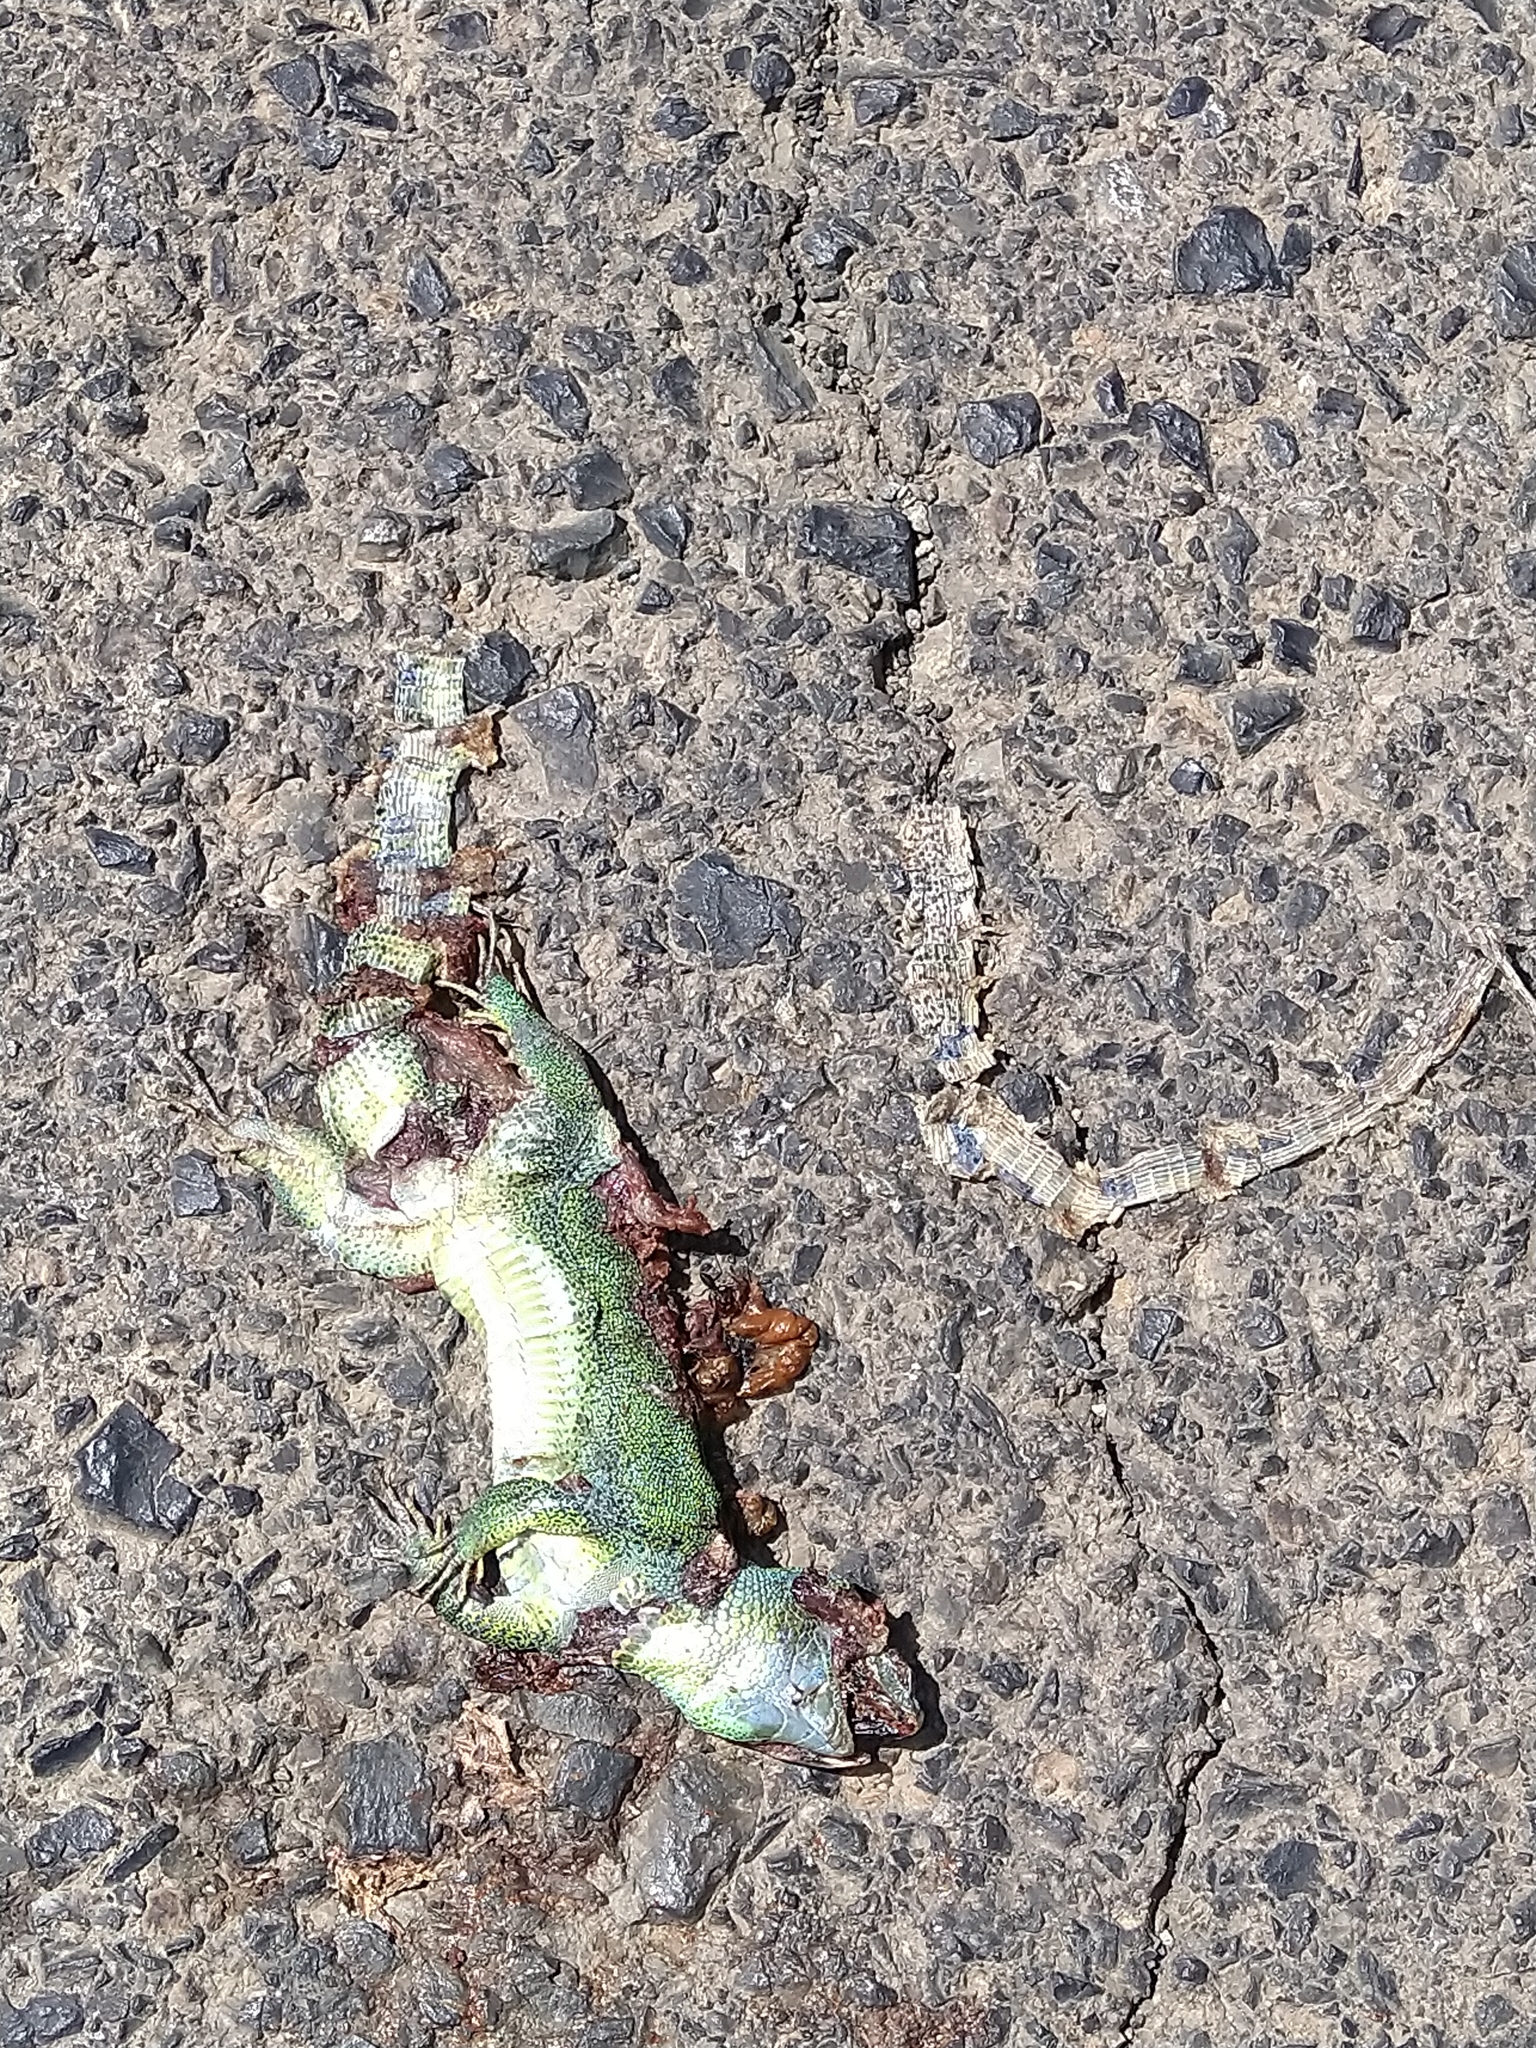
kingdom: Animalia
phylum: Chordata
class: Squamata
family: Lacertidae
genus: Lacerta
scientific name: Lacerta media
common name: Medium lizard
